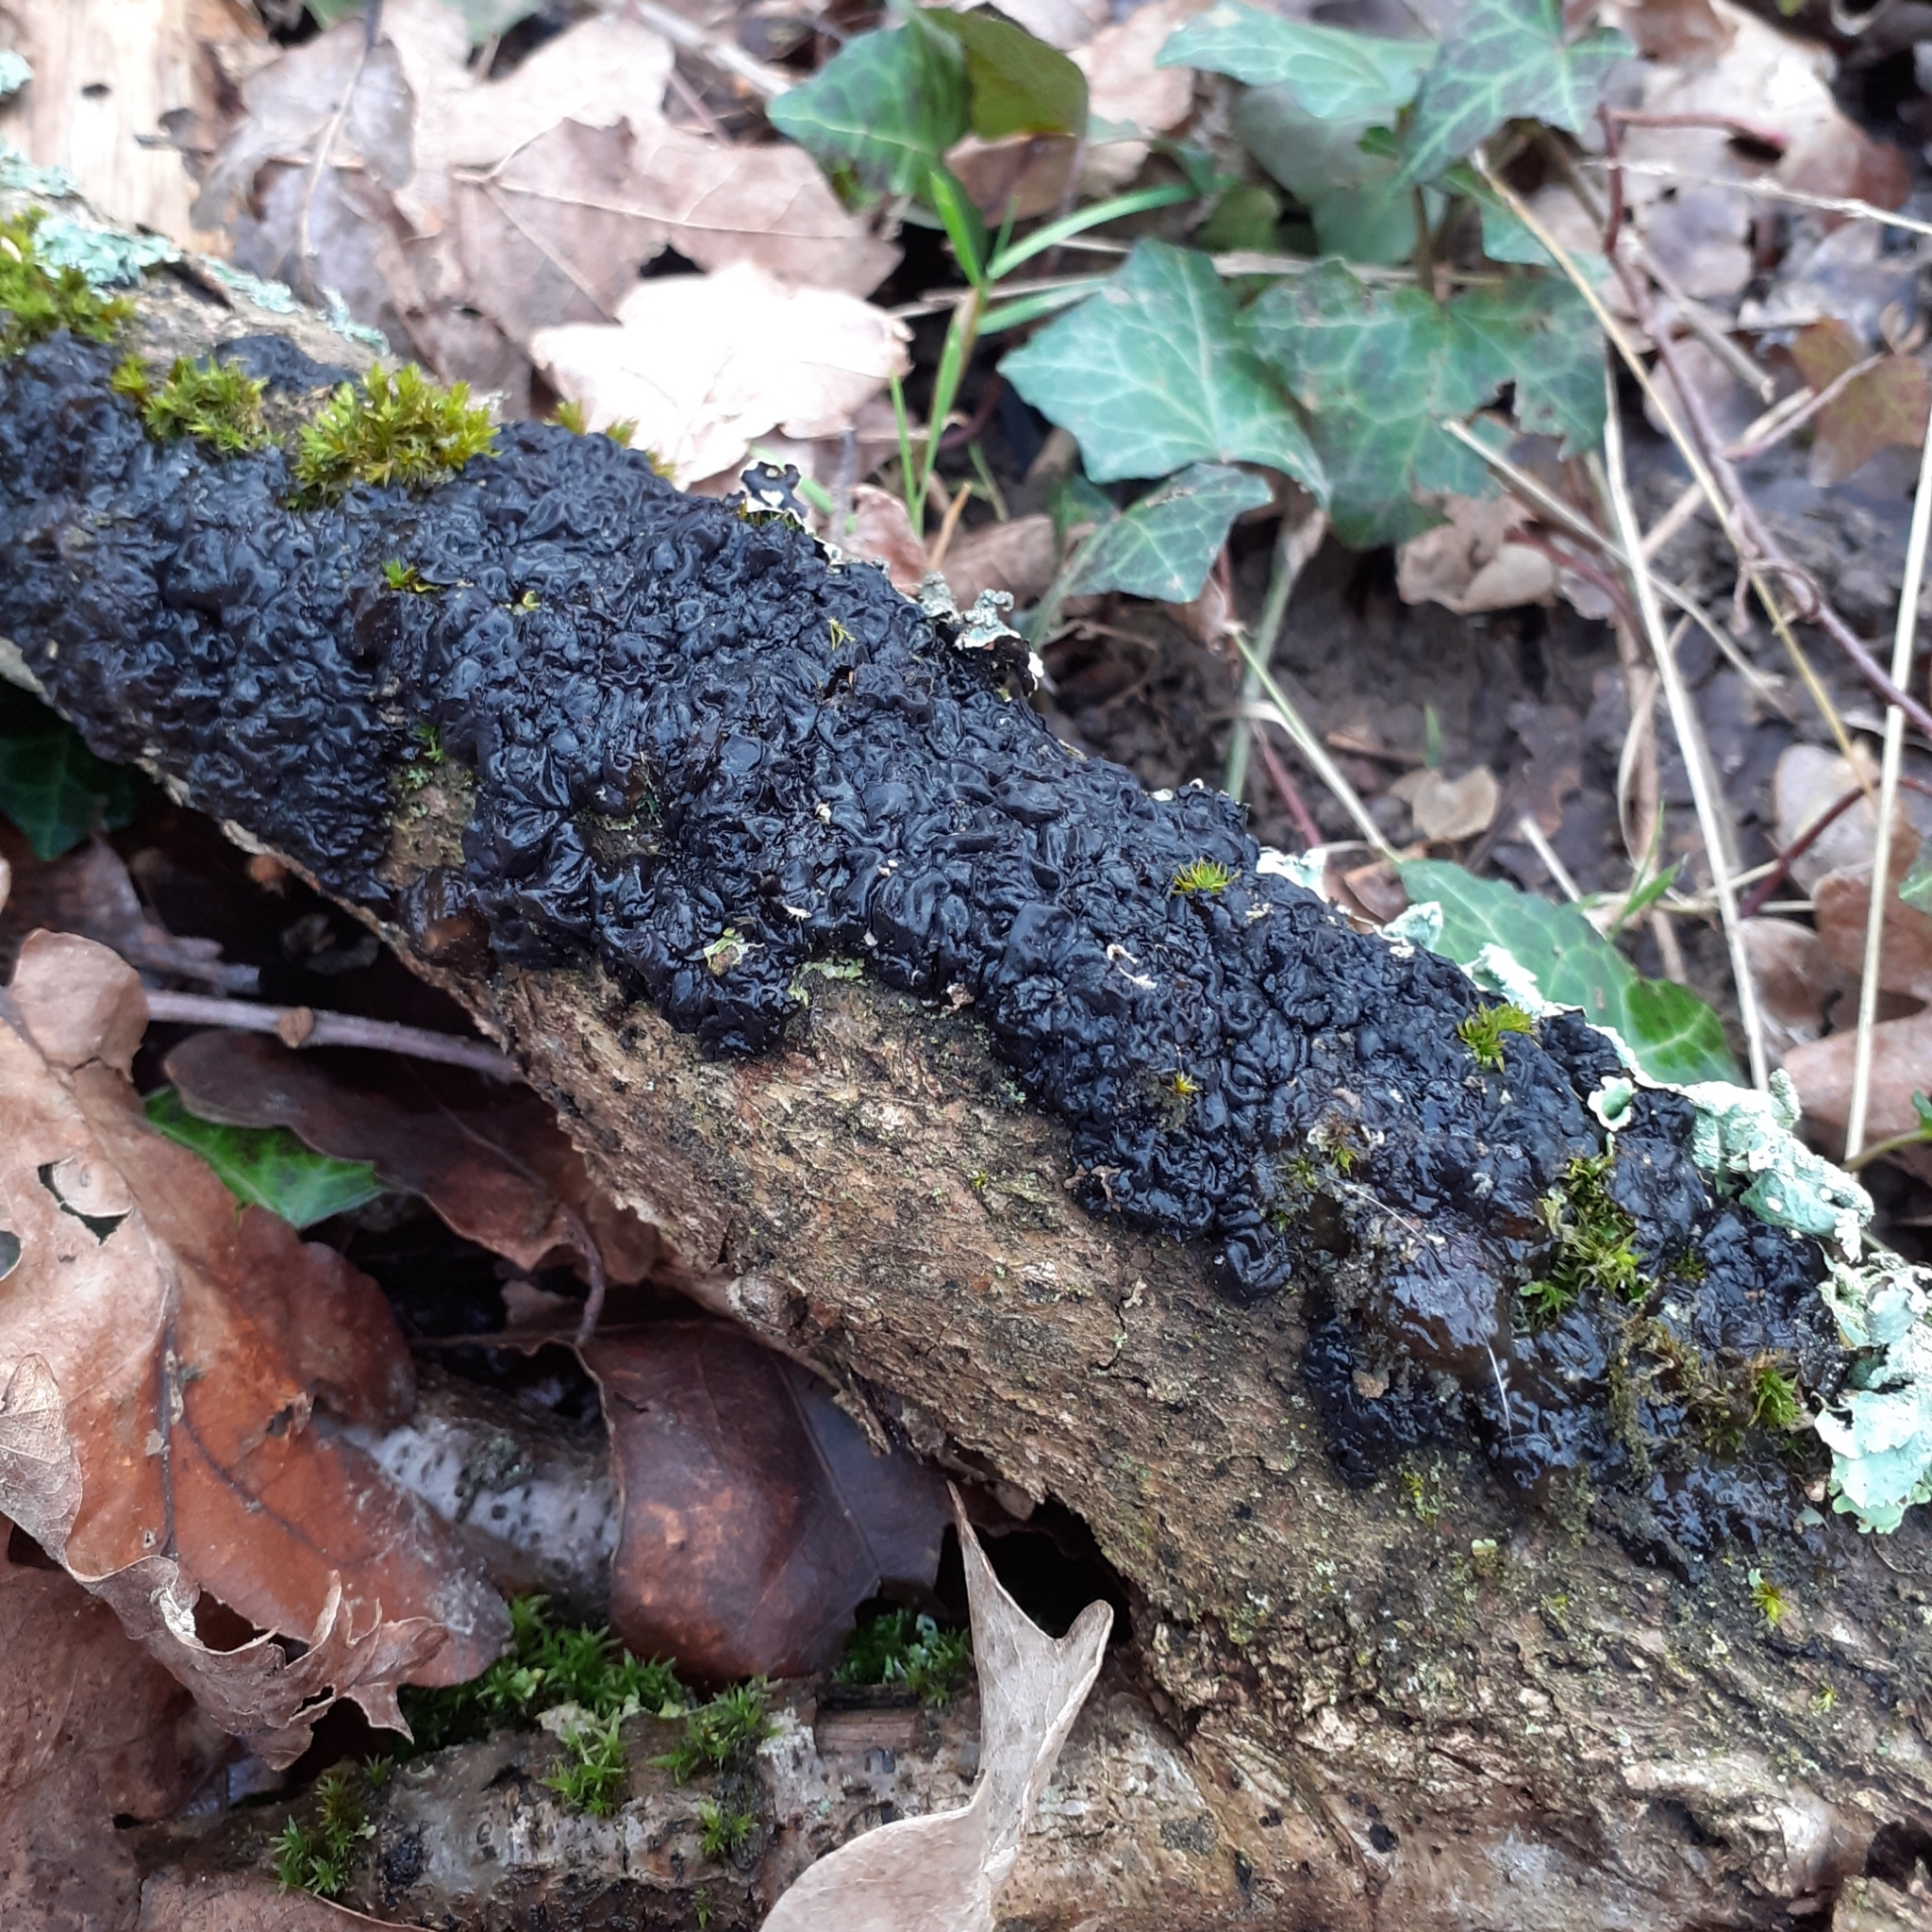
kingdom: Fungi
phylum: Basidiomycota
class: Agaricomycetes
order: Auriculariales
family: Auriculariaceae
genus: Exidia
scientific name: Exidia nigricans
